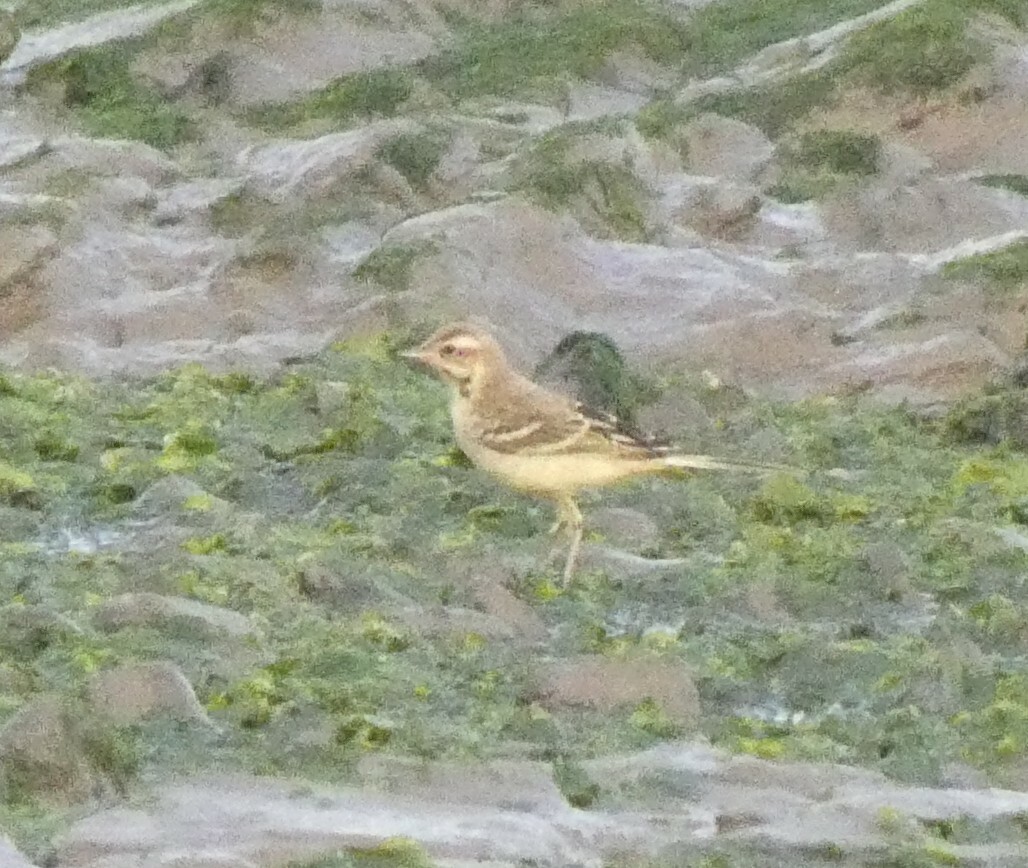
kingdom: Animalia
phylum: Chordata
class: Aves
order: Passeriformes
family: Motacillidae
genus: Motacilla
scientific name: Motacilla flava
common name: Western yellow wagtail
